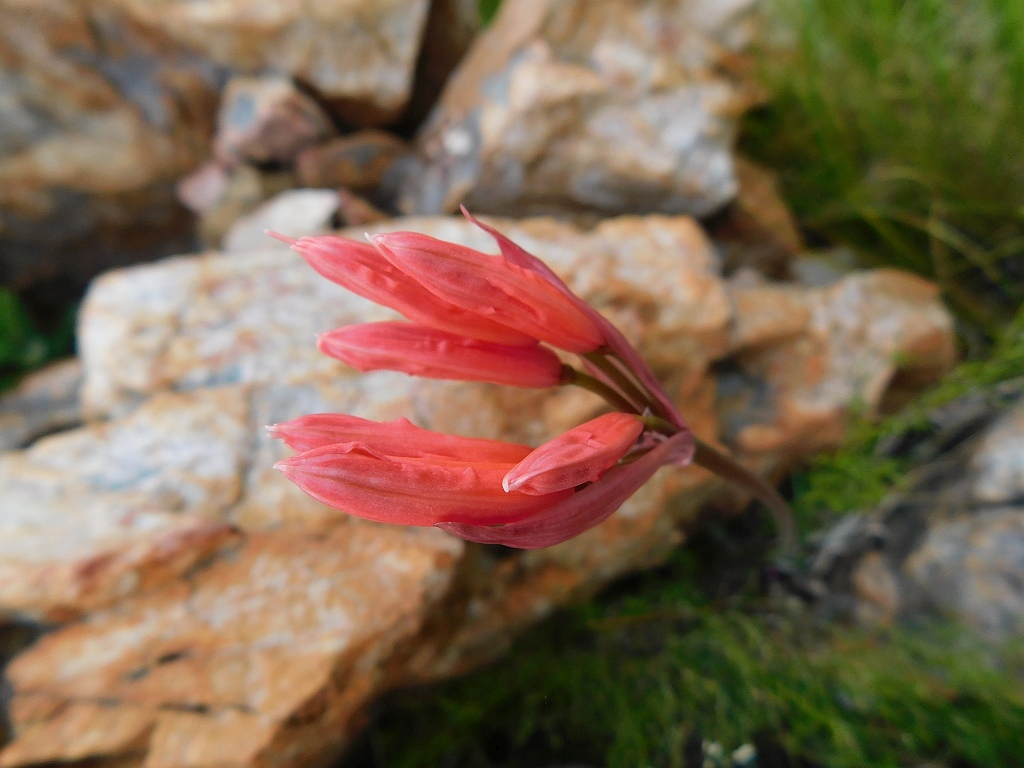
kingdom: Plantae
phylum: Tracheophyta
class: Liliopsida
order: Asparagales
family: Amaryllidaceae
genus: Nerine
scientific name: Nerine sarniensis
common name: Guernsey-lily
